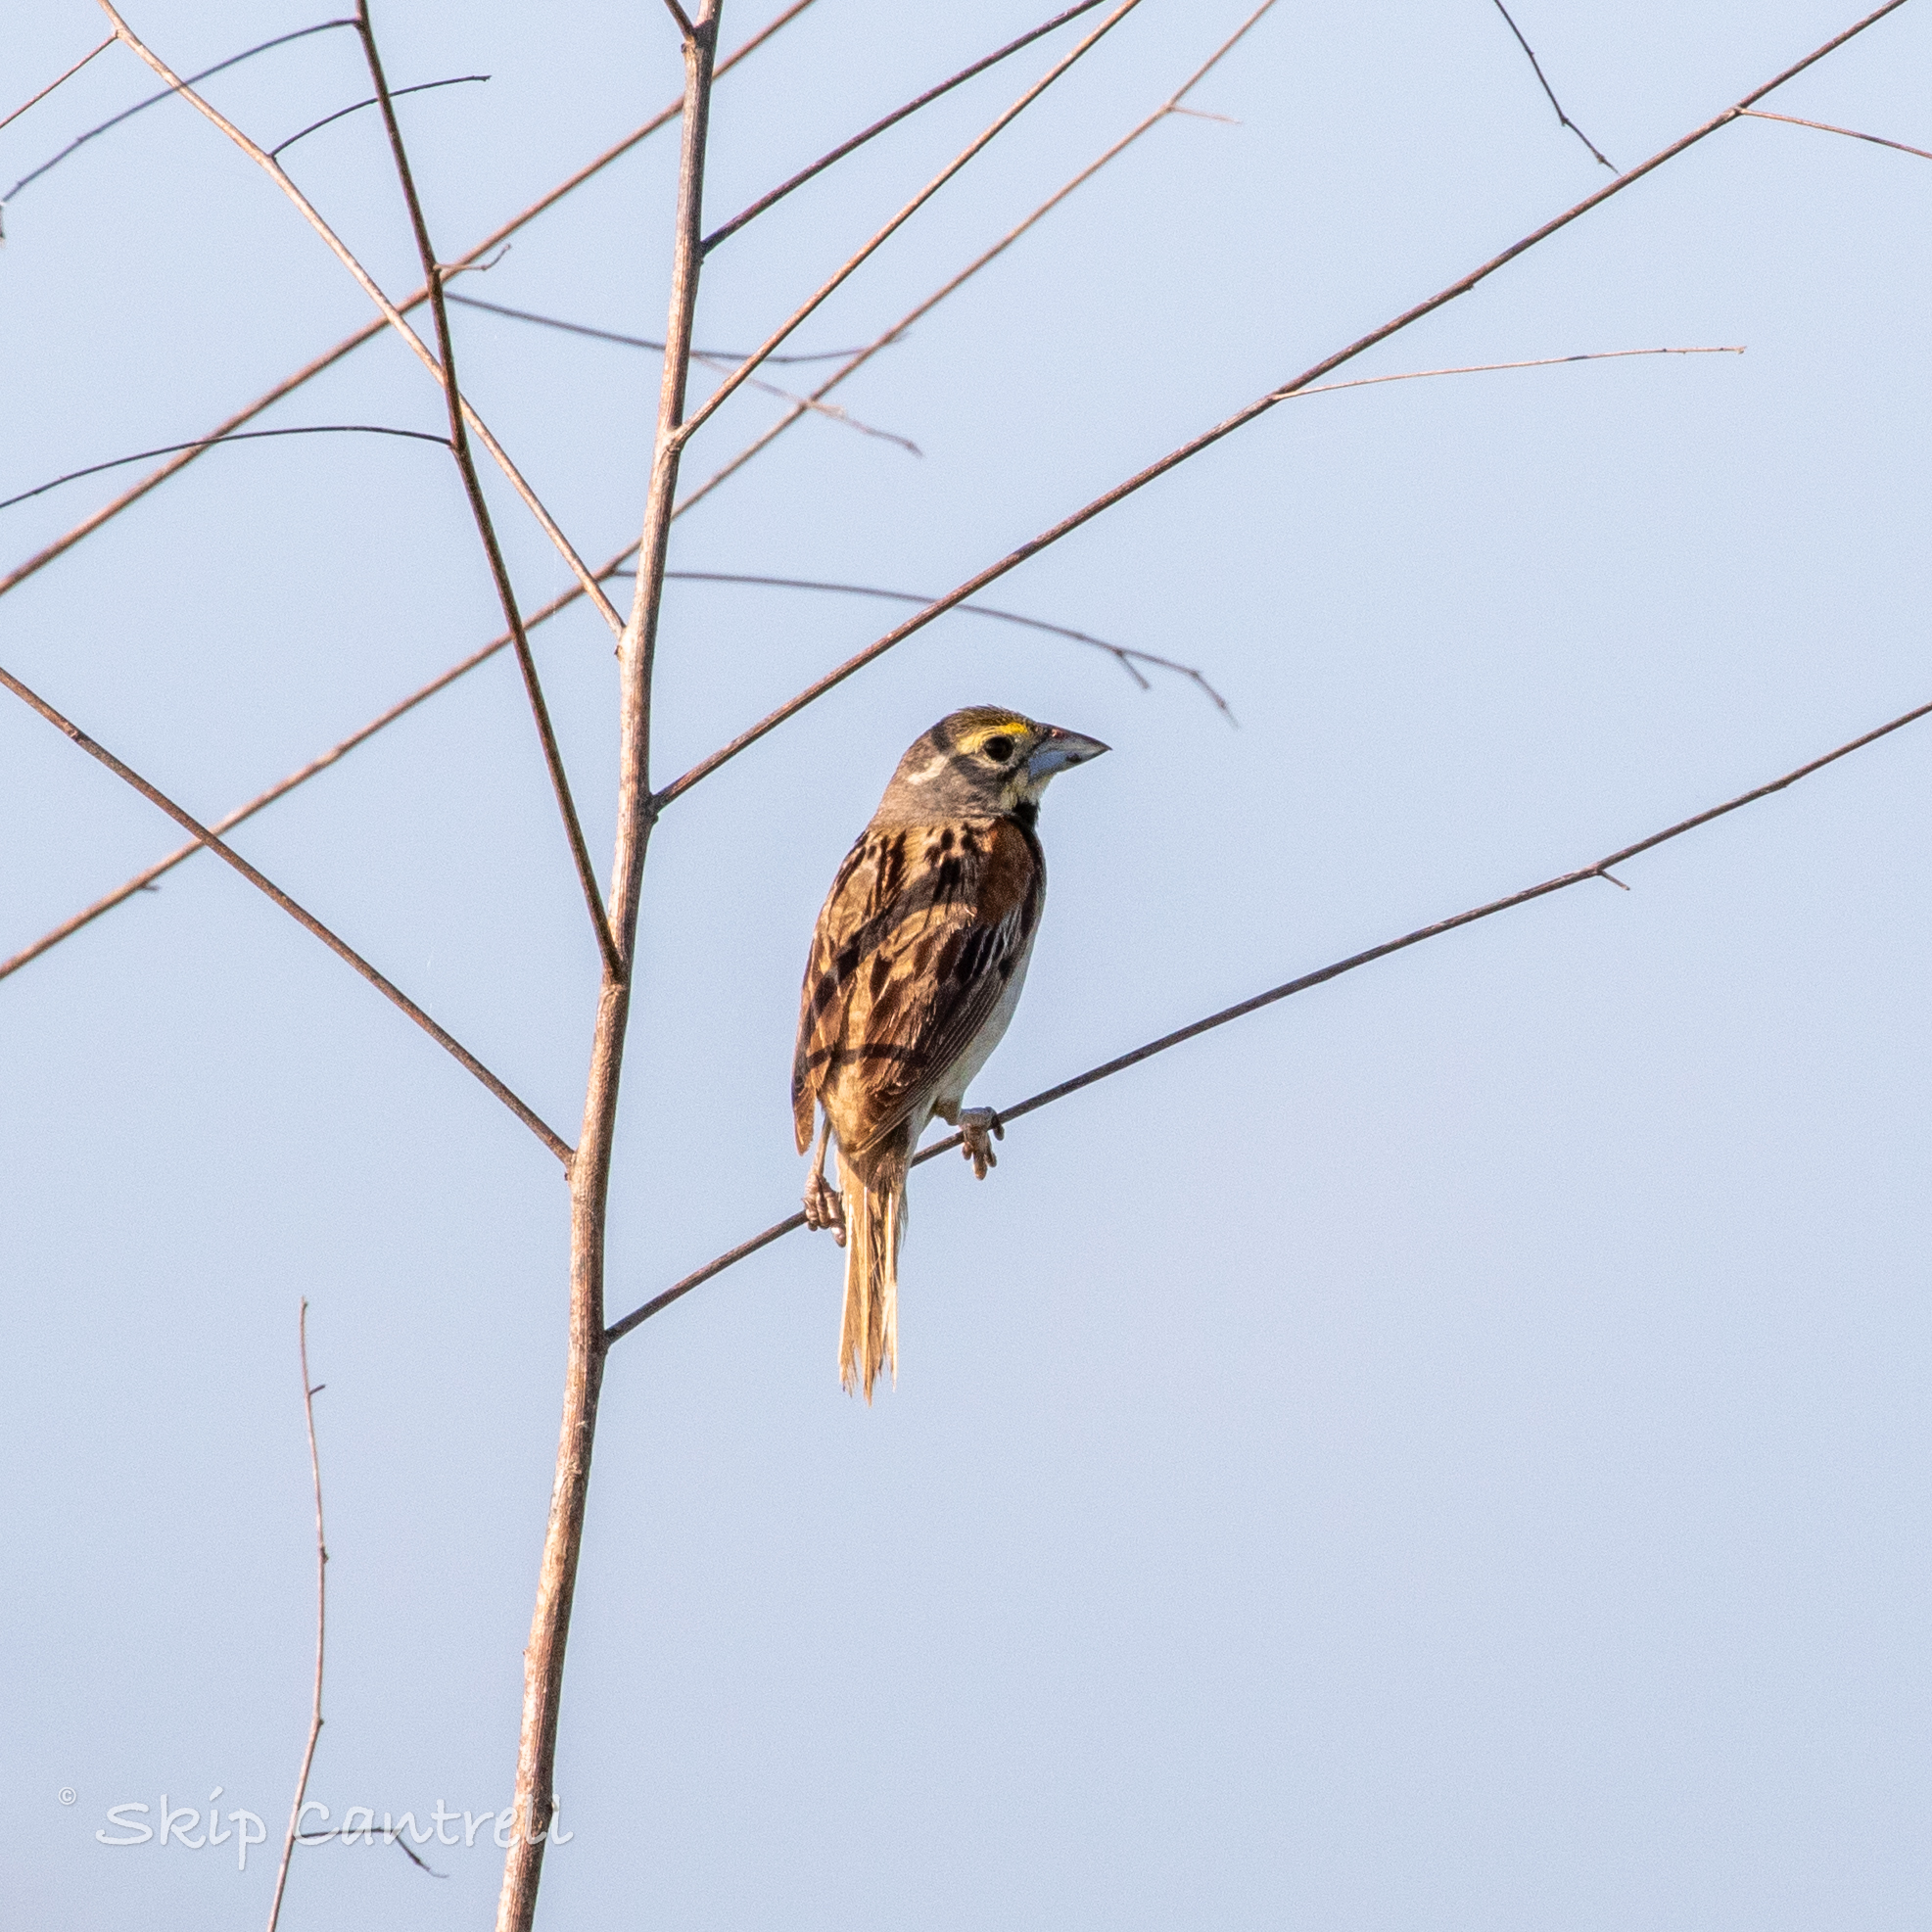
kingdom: Animalia
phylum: Chordata
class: Aves
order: Passeriformes
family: Cardinalidae
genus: Spiza
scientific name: Spiza americana
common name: Dickcissel
